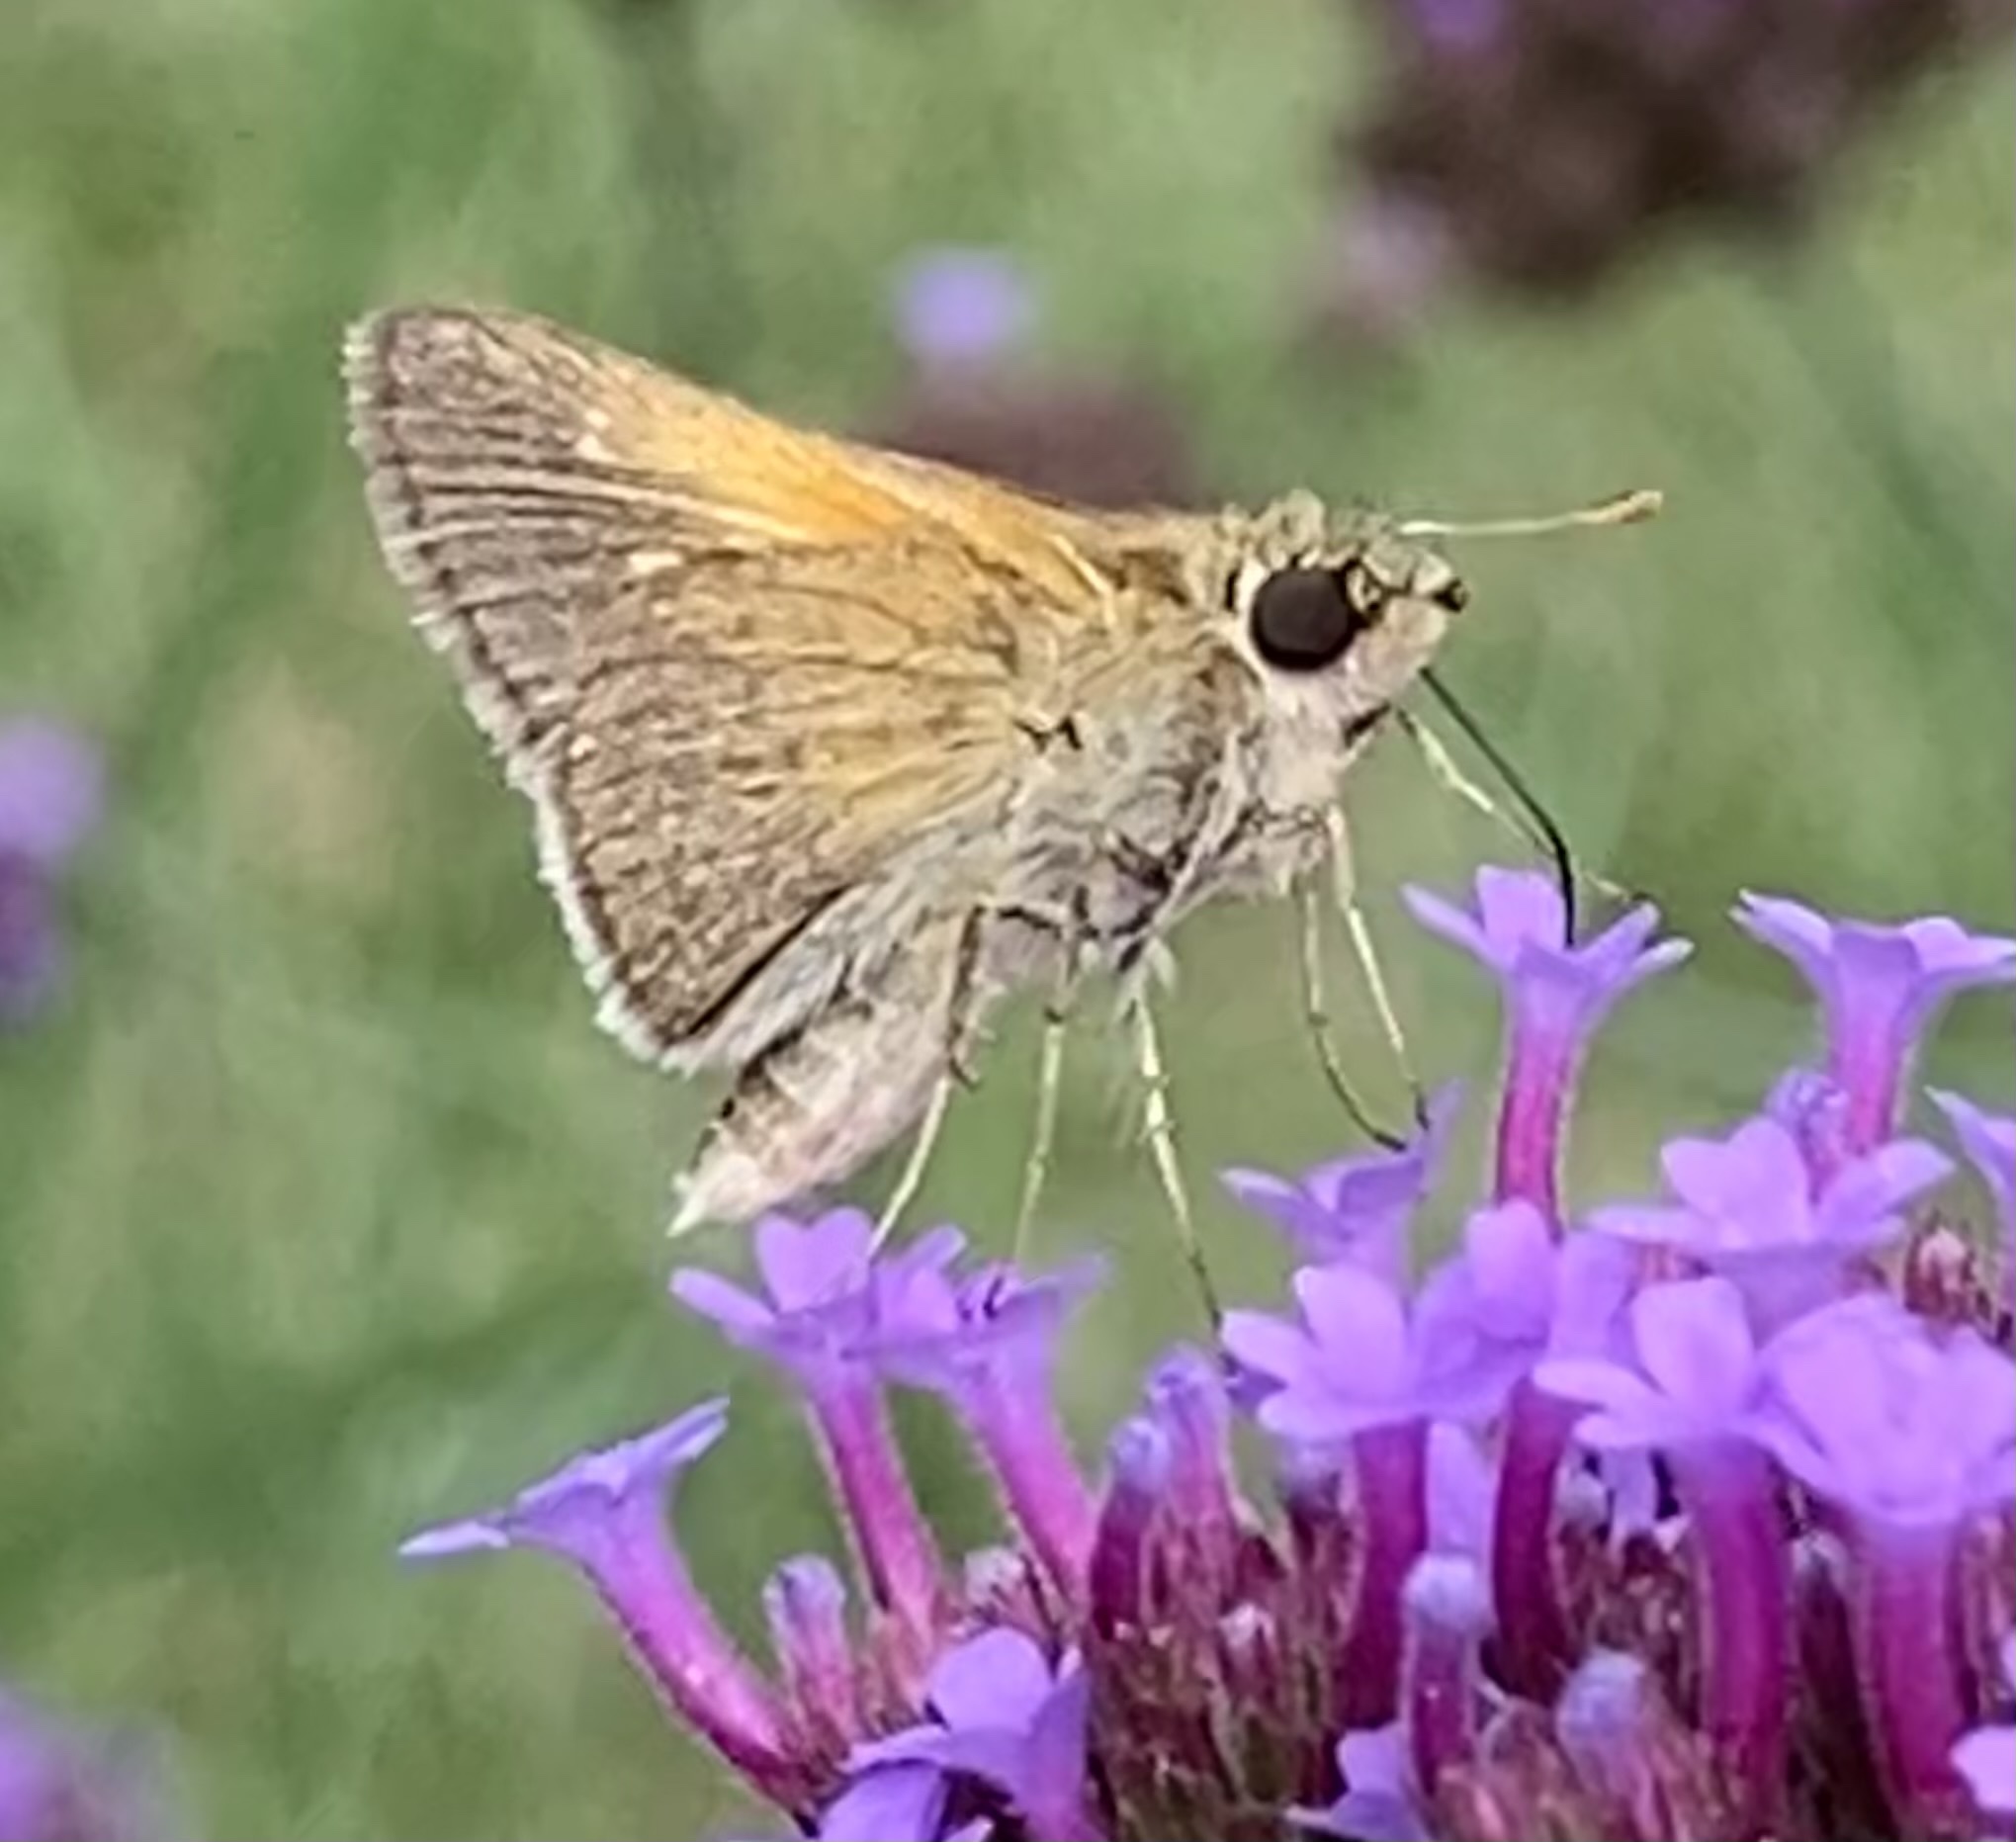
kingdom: Animalia
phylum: Arthropoda
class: Insecta
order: Lepidoptera
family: Hesperiidae
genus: Polites
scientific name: Polites themistocles
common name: Tawny-edged skipper
